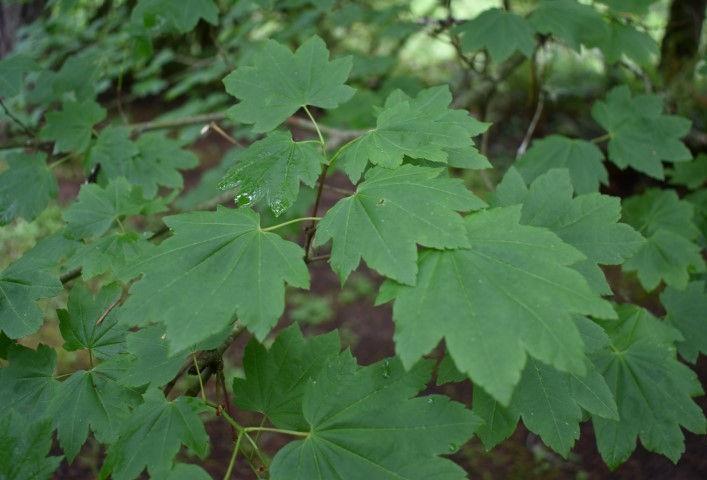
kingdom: Plantae
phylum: Tracheophyta
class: Magnoliopsida
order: Sapindales
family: Sapindaceae
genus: Acer
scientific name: Acer circinatum
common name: Vine maple
